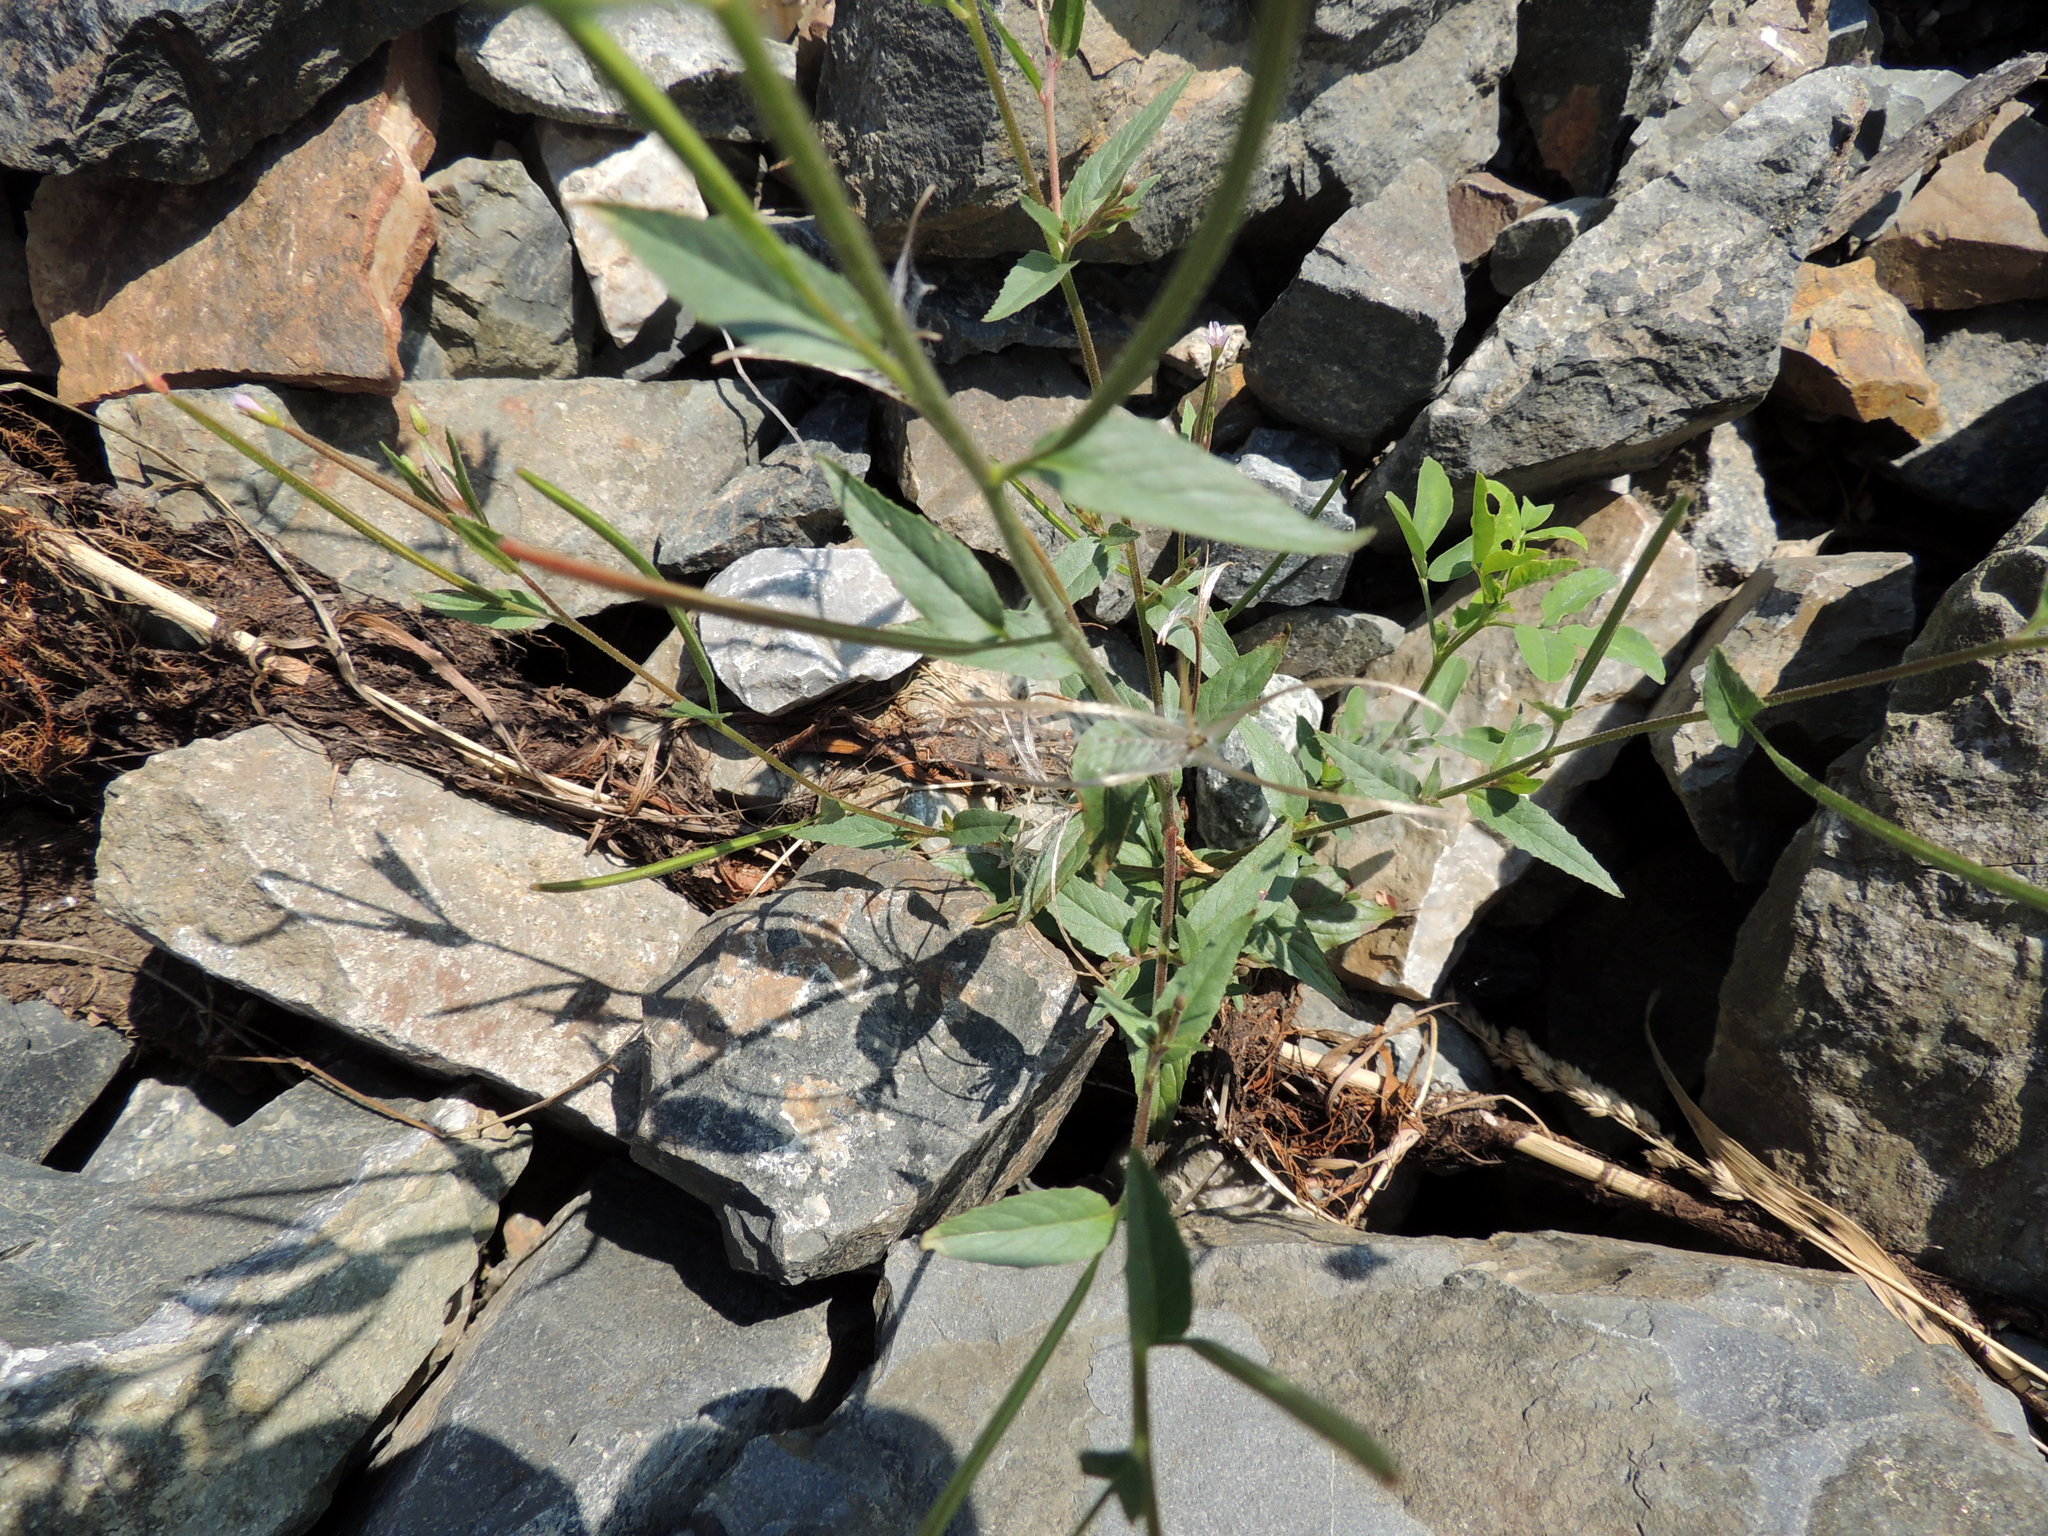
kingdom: Plantae
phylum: Tracheophyta
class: Magnoliopsida
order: Myrtales
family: Onagraceae
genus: Epilobium
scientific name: Epilobium ciliatum
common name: American willowherb
